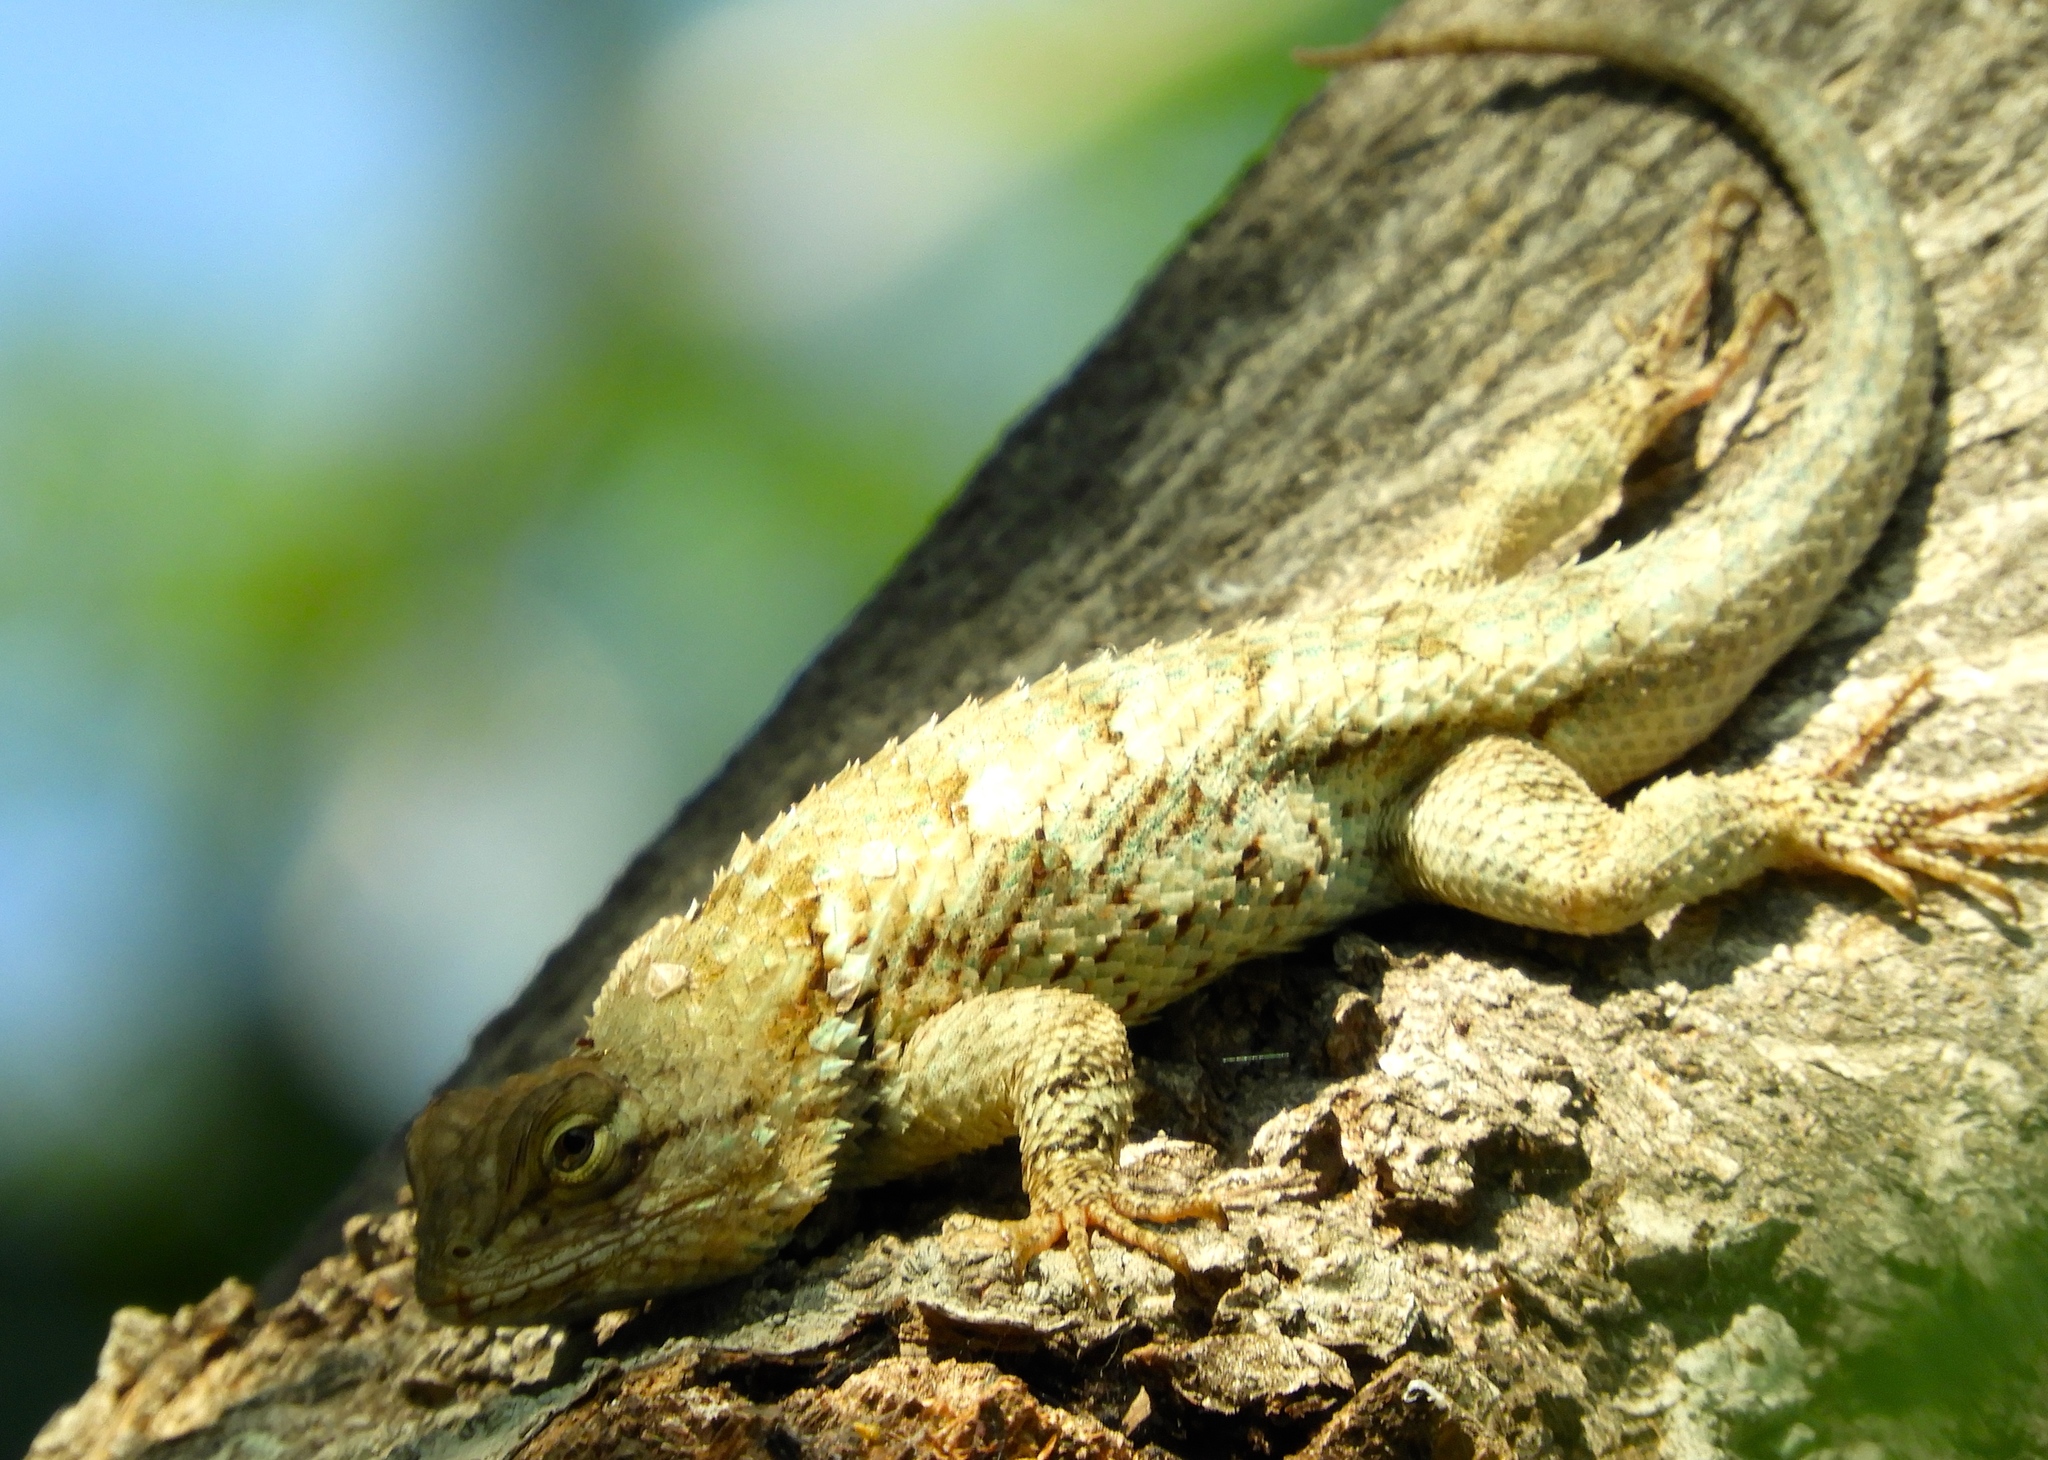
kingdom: Animalia
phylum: Chordata
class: Squamata
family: Phrynosomatidae
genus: Sceloporus
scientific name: Sceloporus clarkii
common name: Clark's spiny lizard
